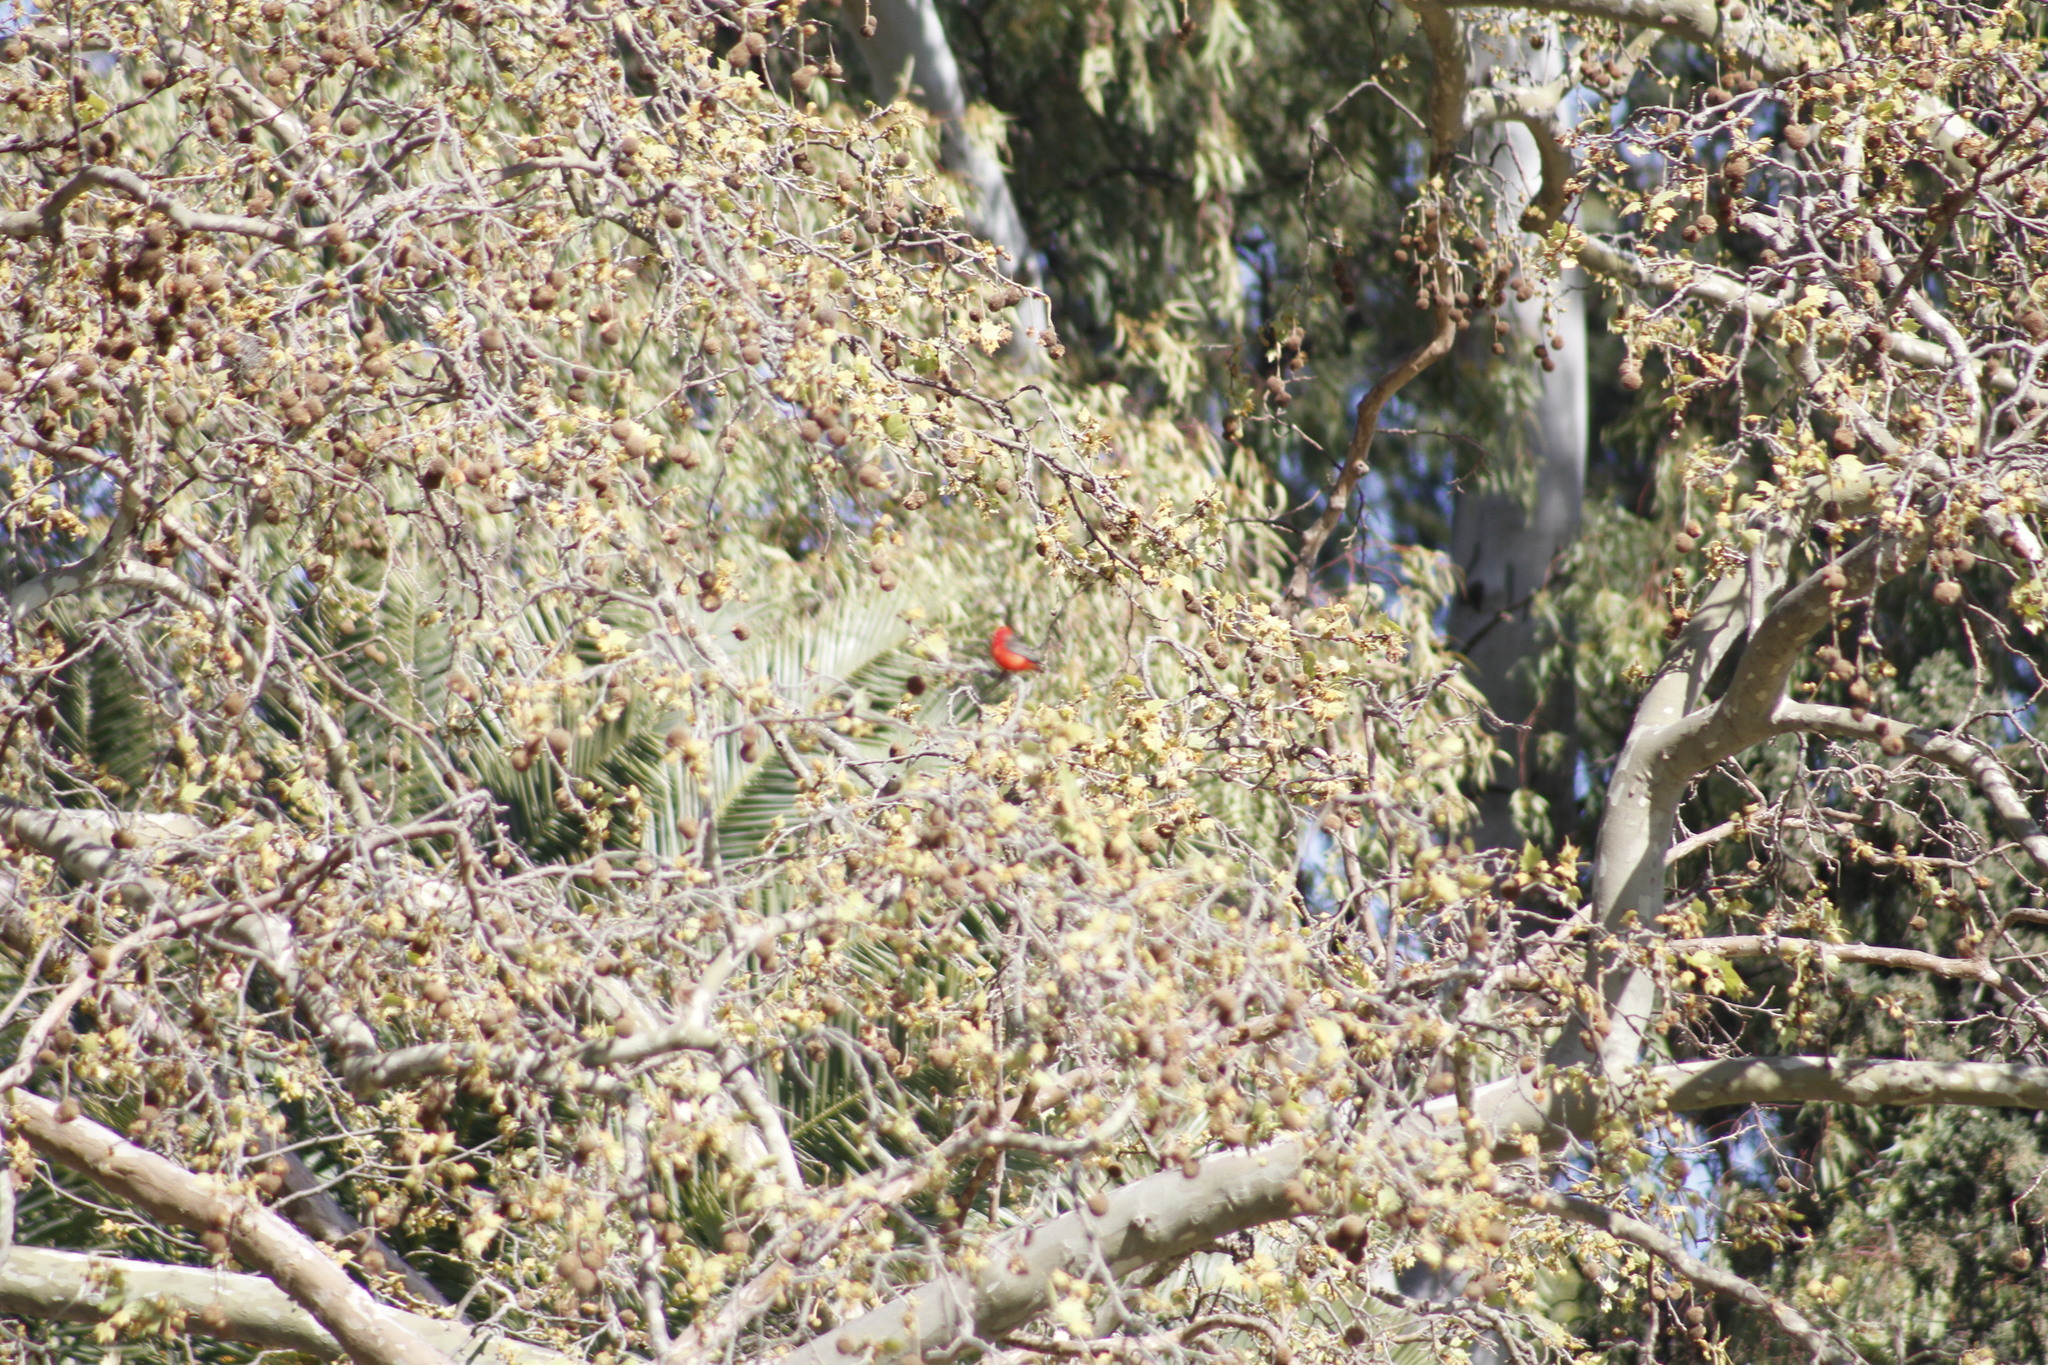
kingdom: Animalia
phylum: Chordata
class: Aves
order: Passeriformes
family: Tyrannidae
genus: Pyrocephalus
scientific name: Pyrocephalus rubinus
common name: Vermilion flycatcher
